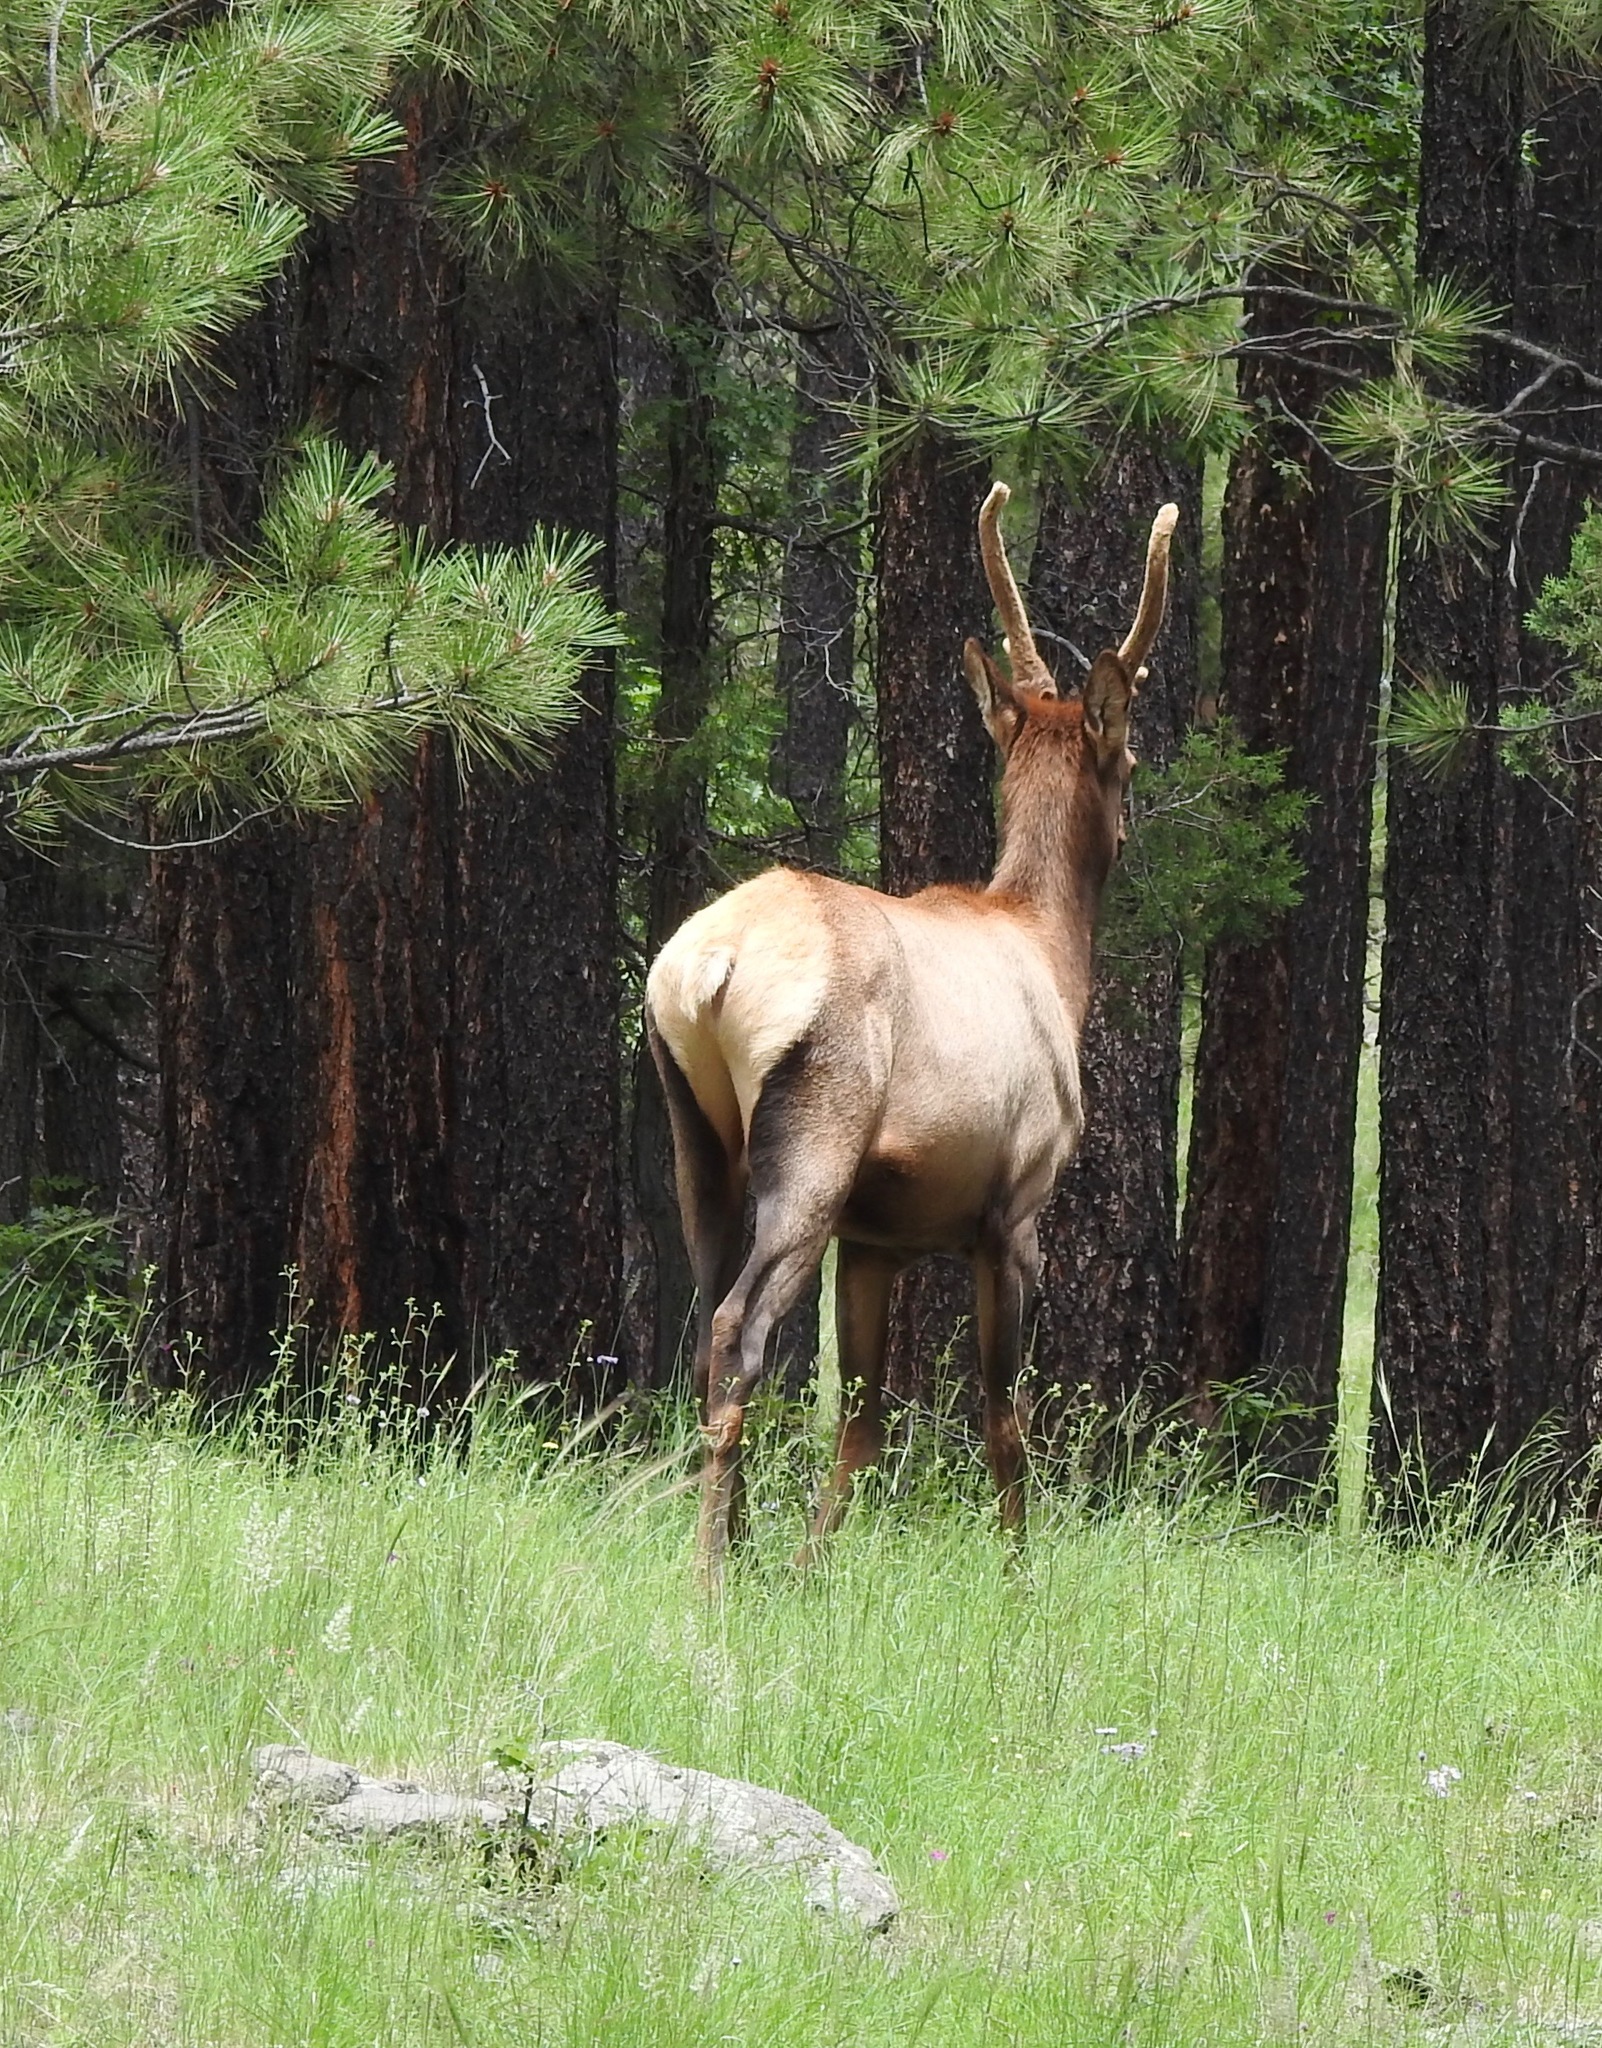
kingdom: Animalia
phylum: Chordata
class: Mammalia
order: Artiodactyla
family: Cervidae
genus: Cervus
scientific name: Cervus elaphus
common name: Red deer
